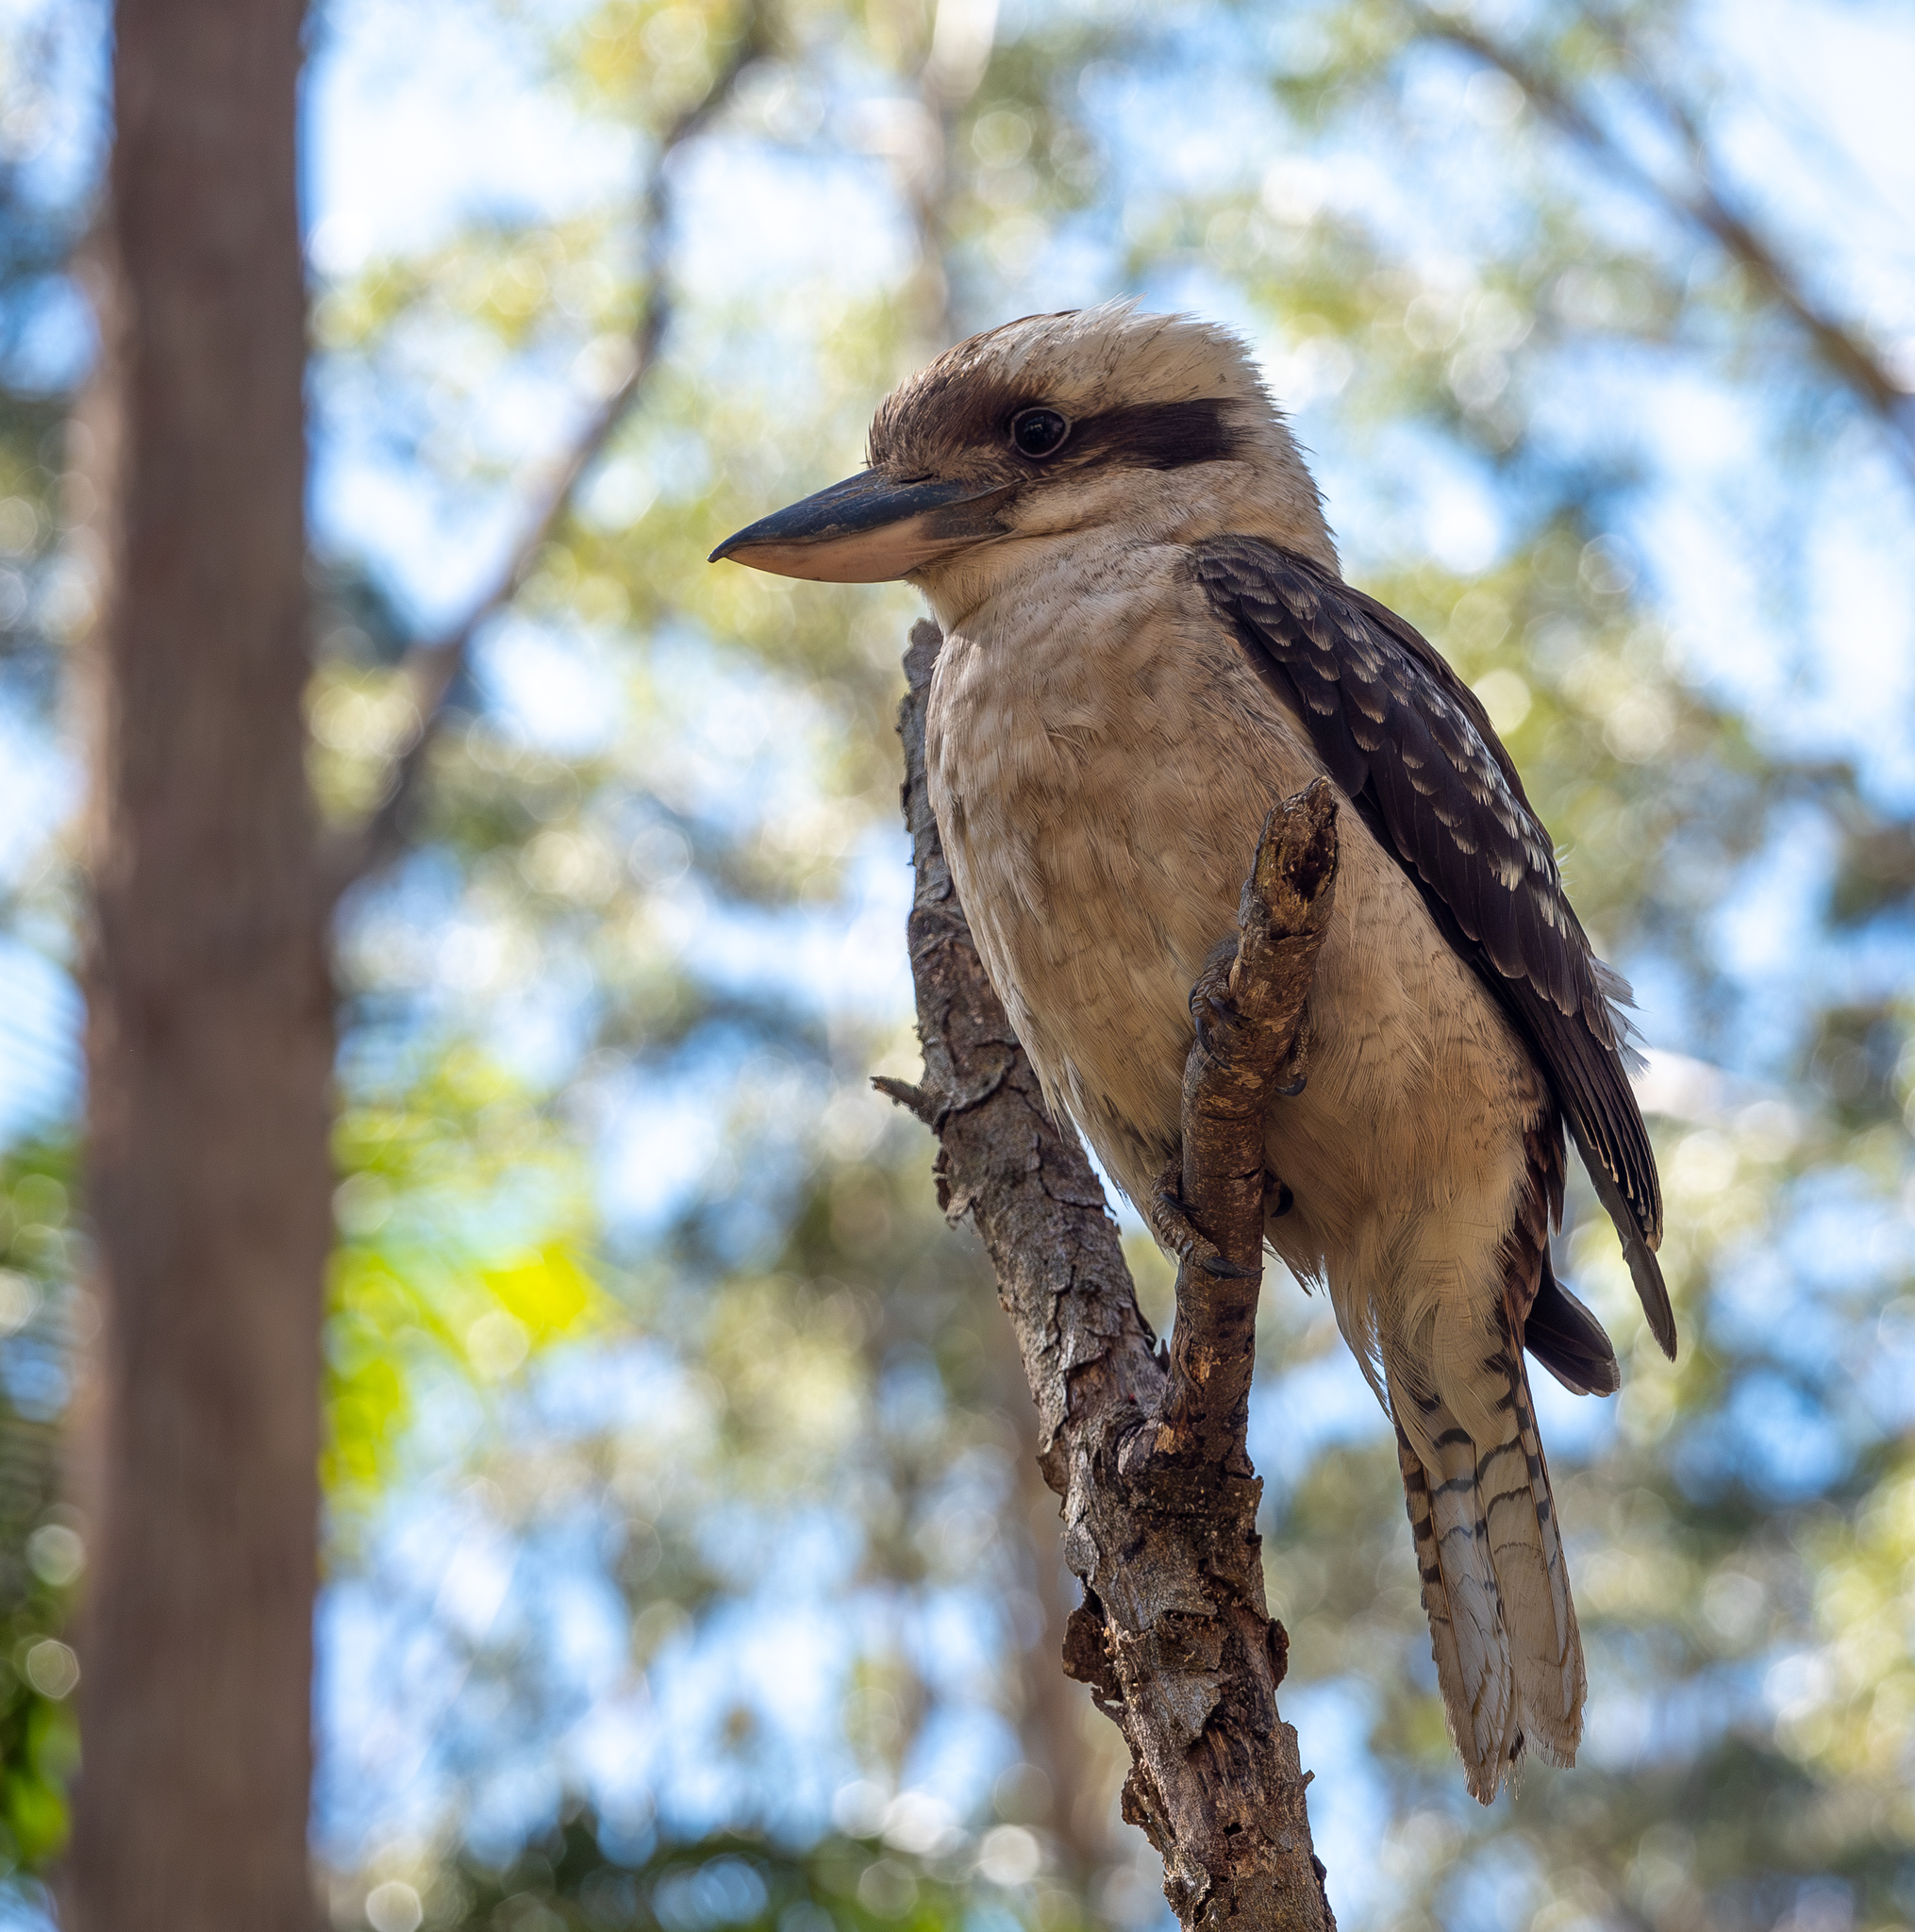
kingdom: Animalia
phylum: Chordata
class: Aves
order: Coraciiformes
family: Alcedinidae
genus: Dacelo
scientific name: Dacelo novaeguineae
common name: Laughing kookaburra
